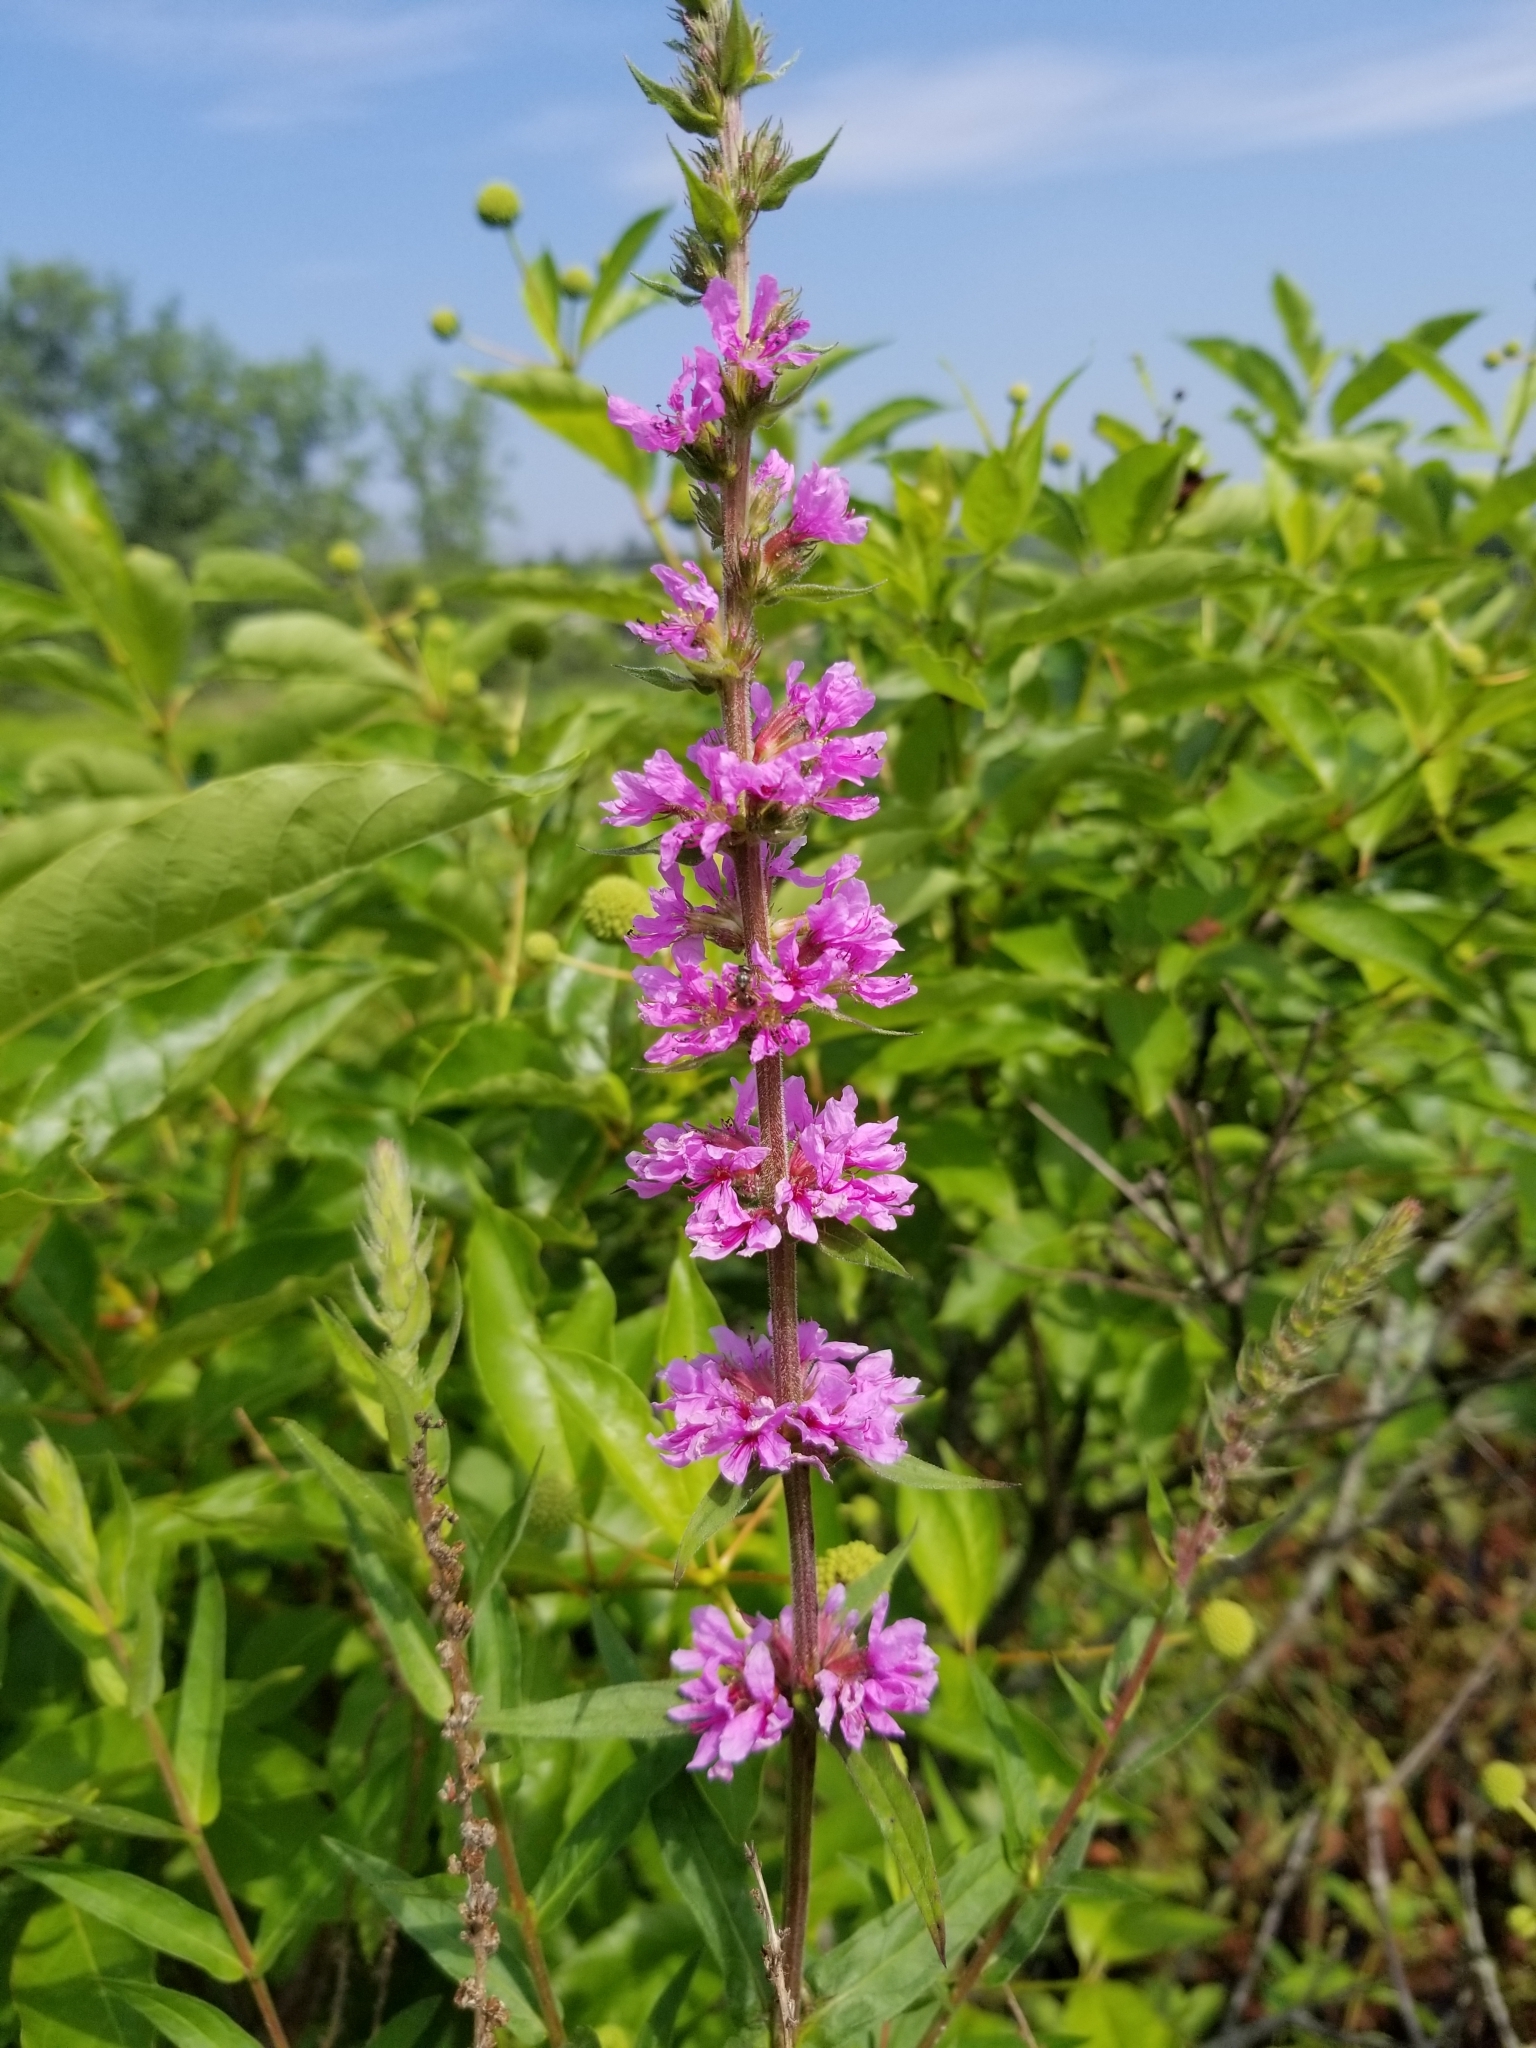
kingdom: Plantae
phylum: Tracheophyta
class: Magnoliopsida
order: Myrtales
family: Lythraceae
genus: Lythrum
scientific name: Lythrum salicaria
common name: Purple loosestrife
